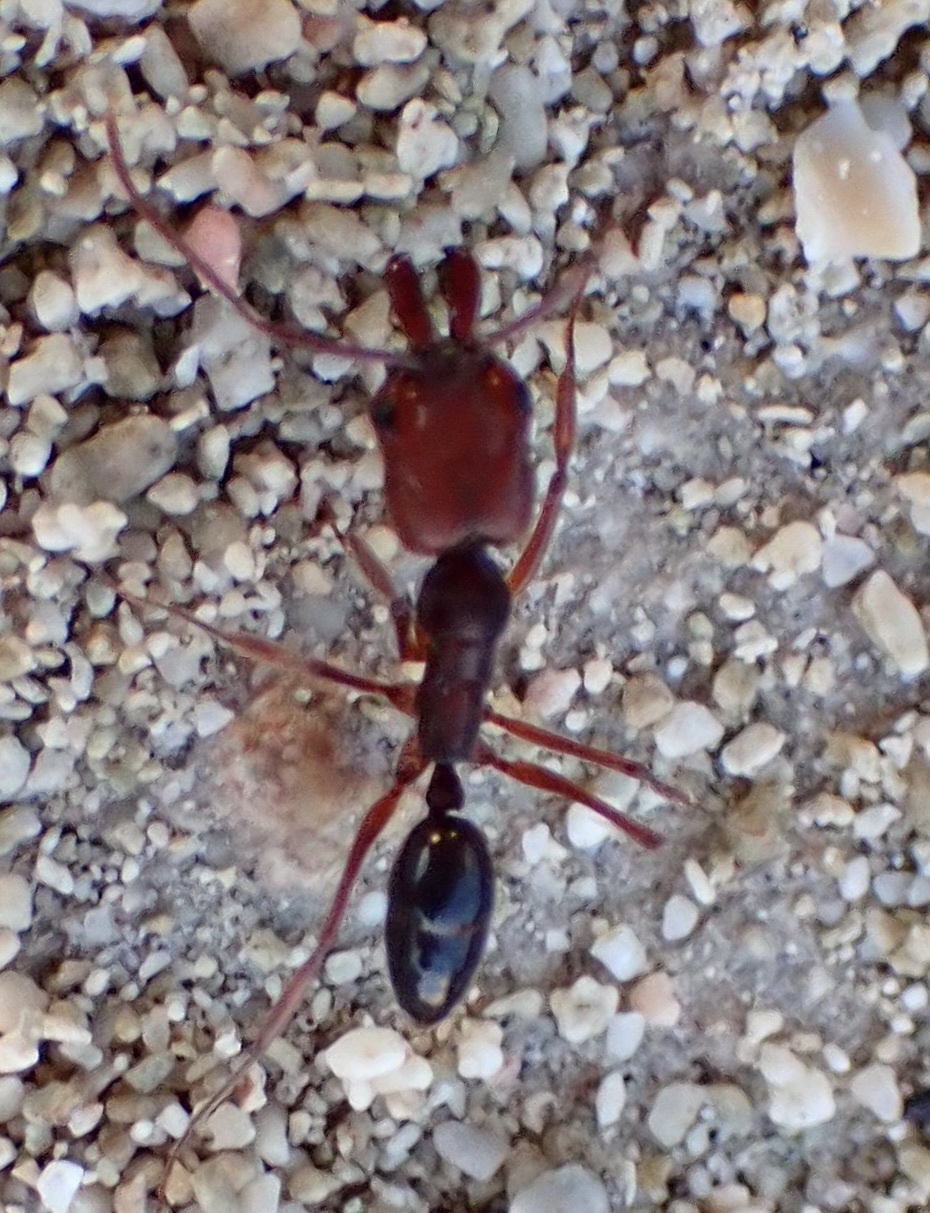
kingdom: Animalia
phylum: Arthropoda
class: Insecta
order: Hymenoptera
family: Formicidae
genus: Odontomachus
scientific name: Odontomachus ruginodis
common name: Trapjaw ant
